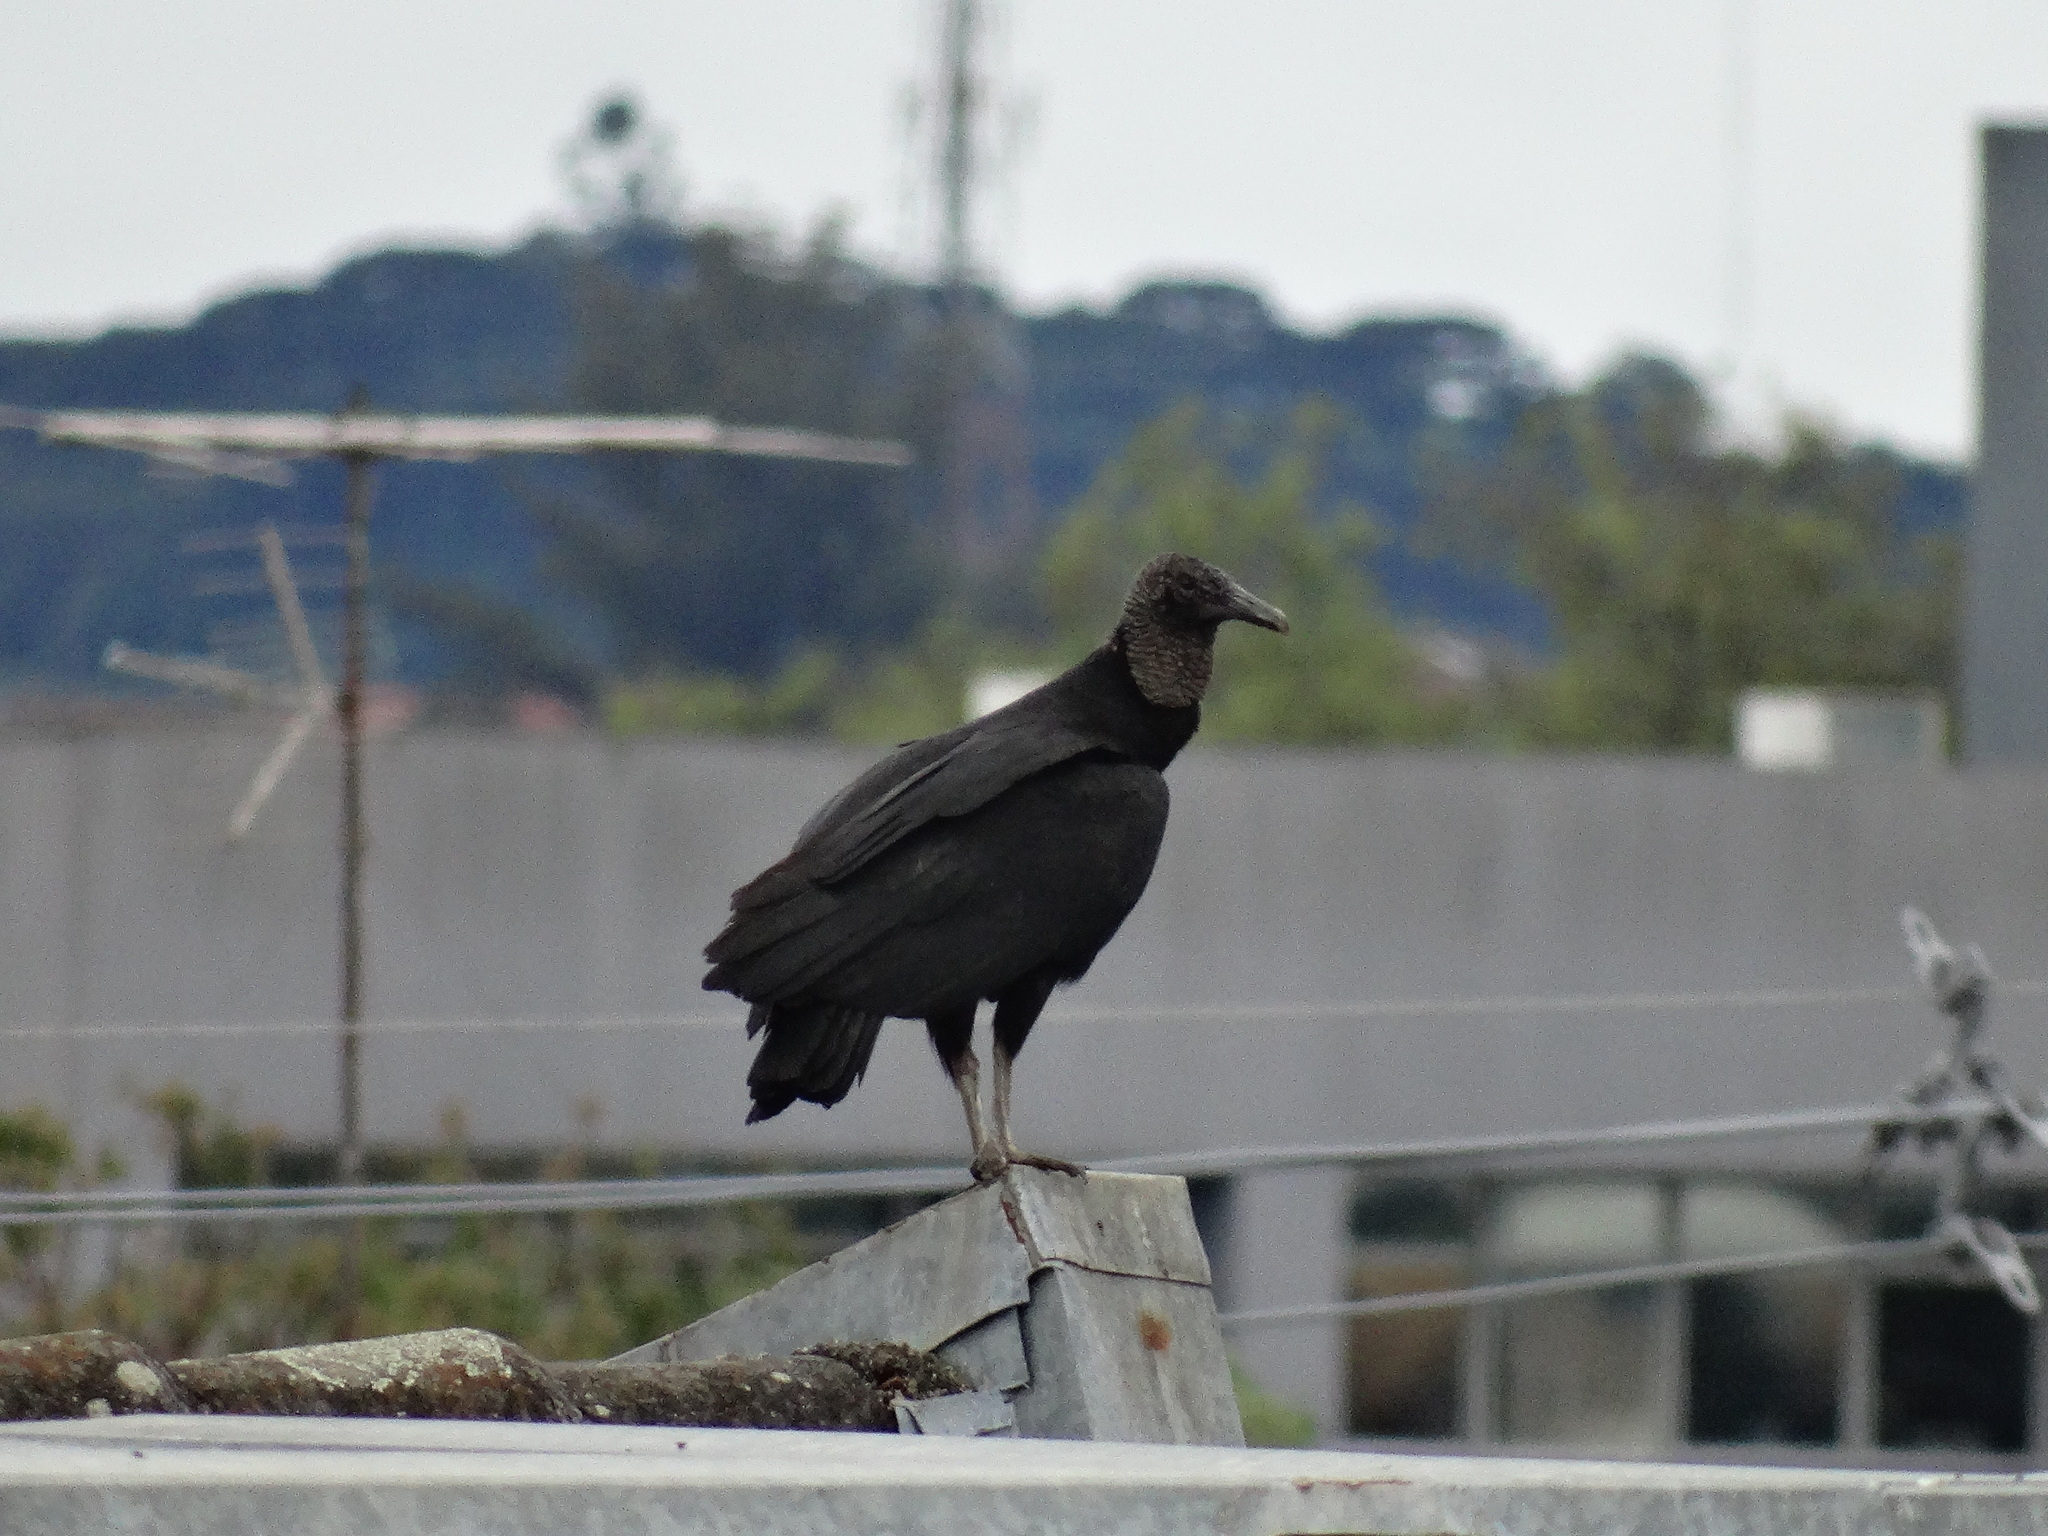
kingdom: Animalia
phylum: Chordata
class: Aves
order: Accipitriformes
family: Cathartidae
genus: Coragyps
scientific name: Coragyps atratus
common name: Black vulture
